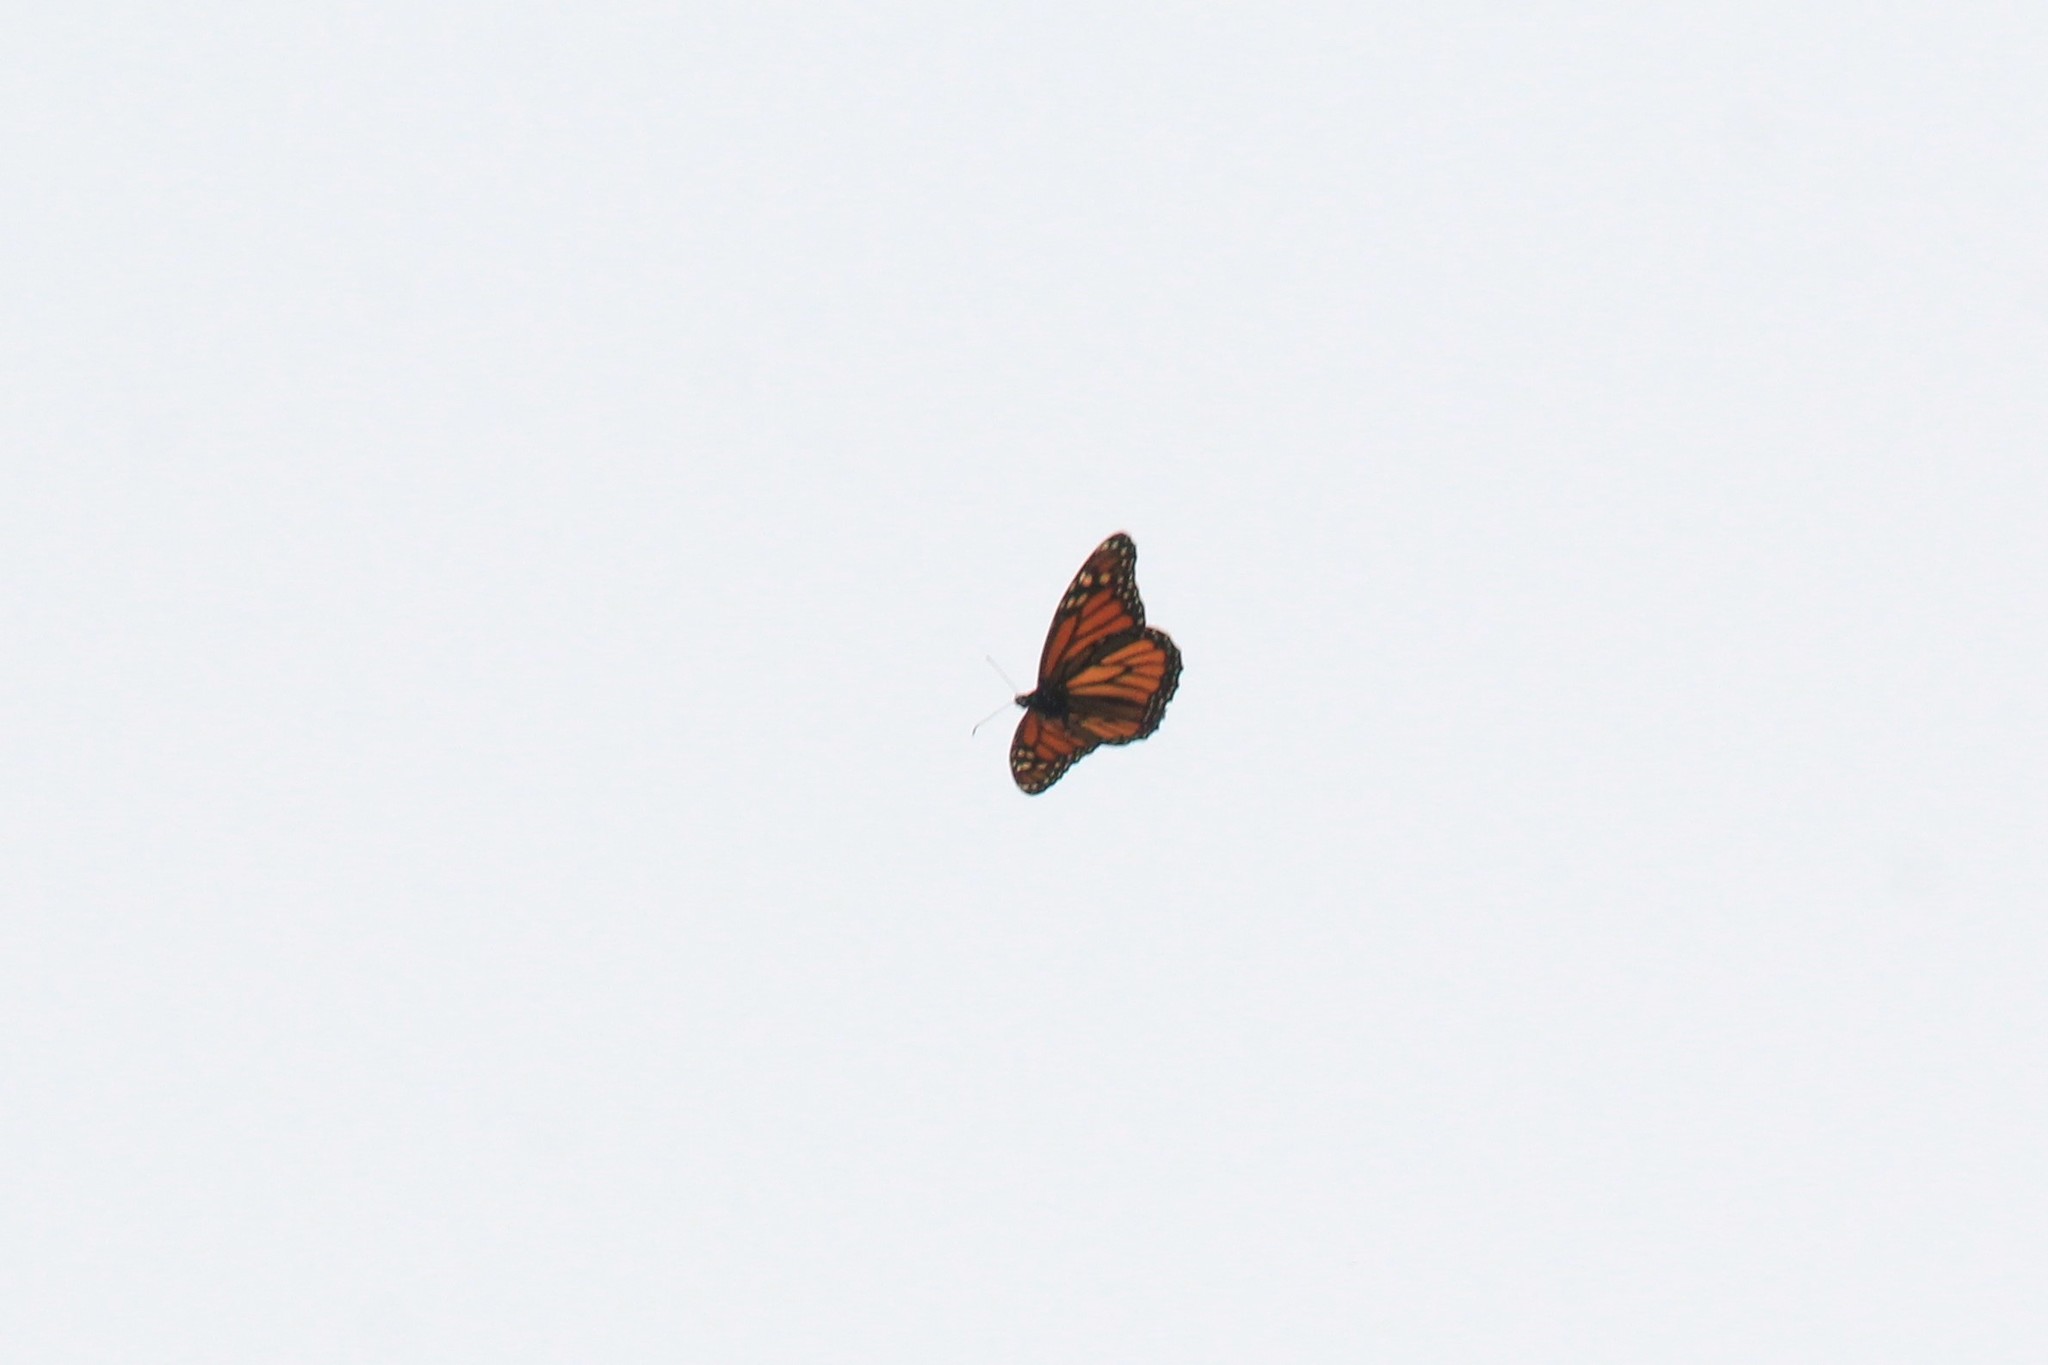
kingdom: Animalia
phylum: Arthropoda
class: Insecta
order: Lepidoptera
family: Nymphalidae
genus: Danaus
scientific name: Danaus plexippus
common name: Monarch
